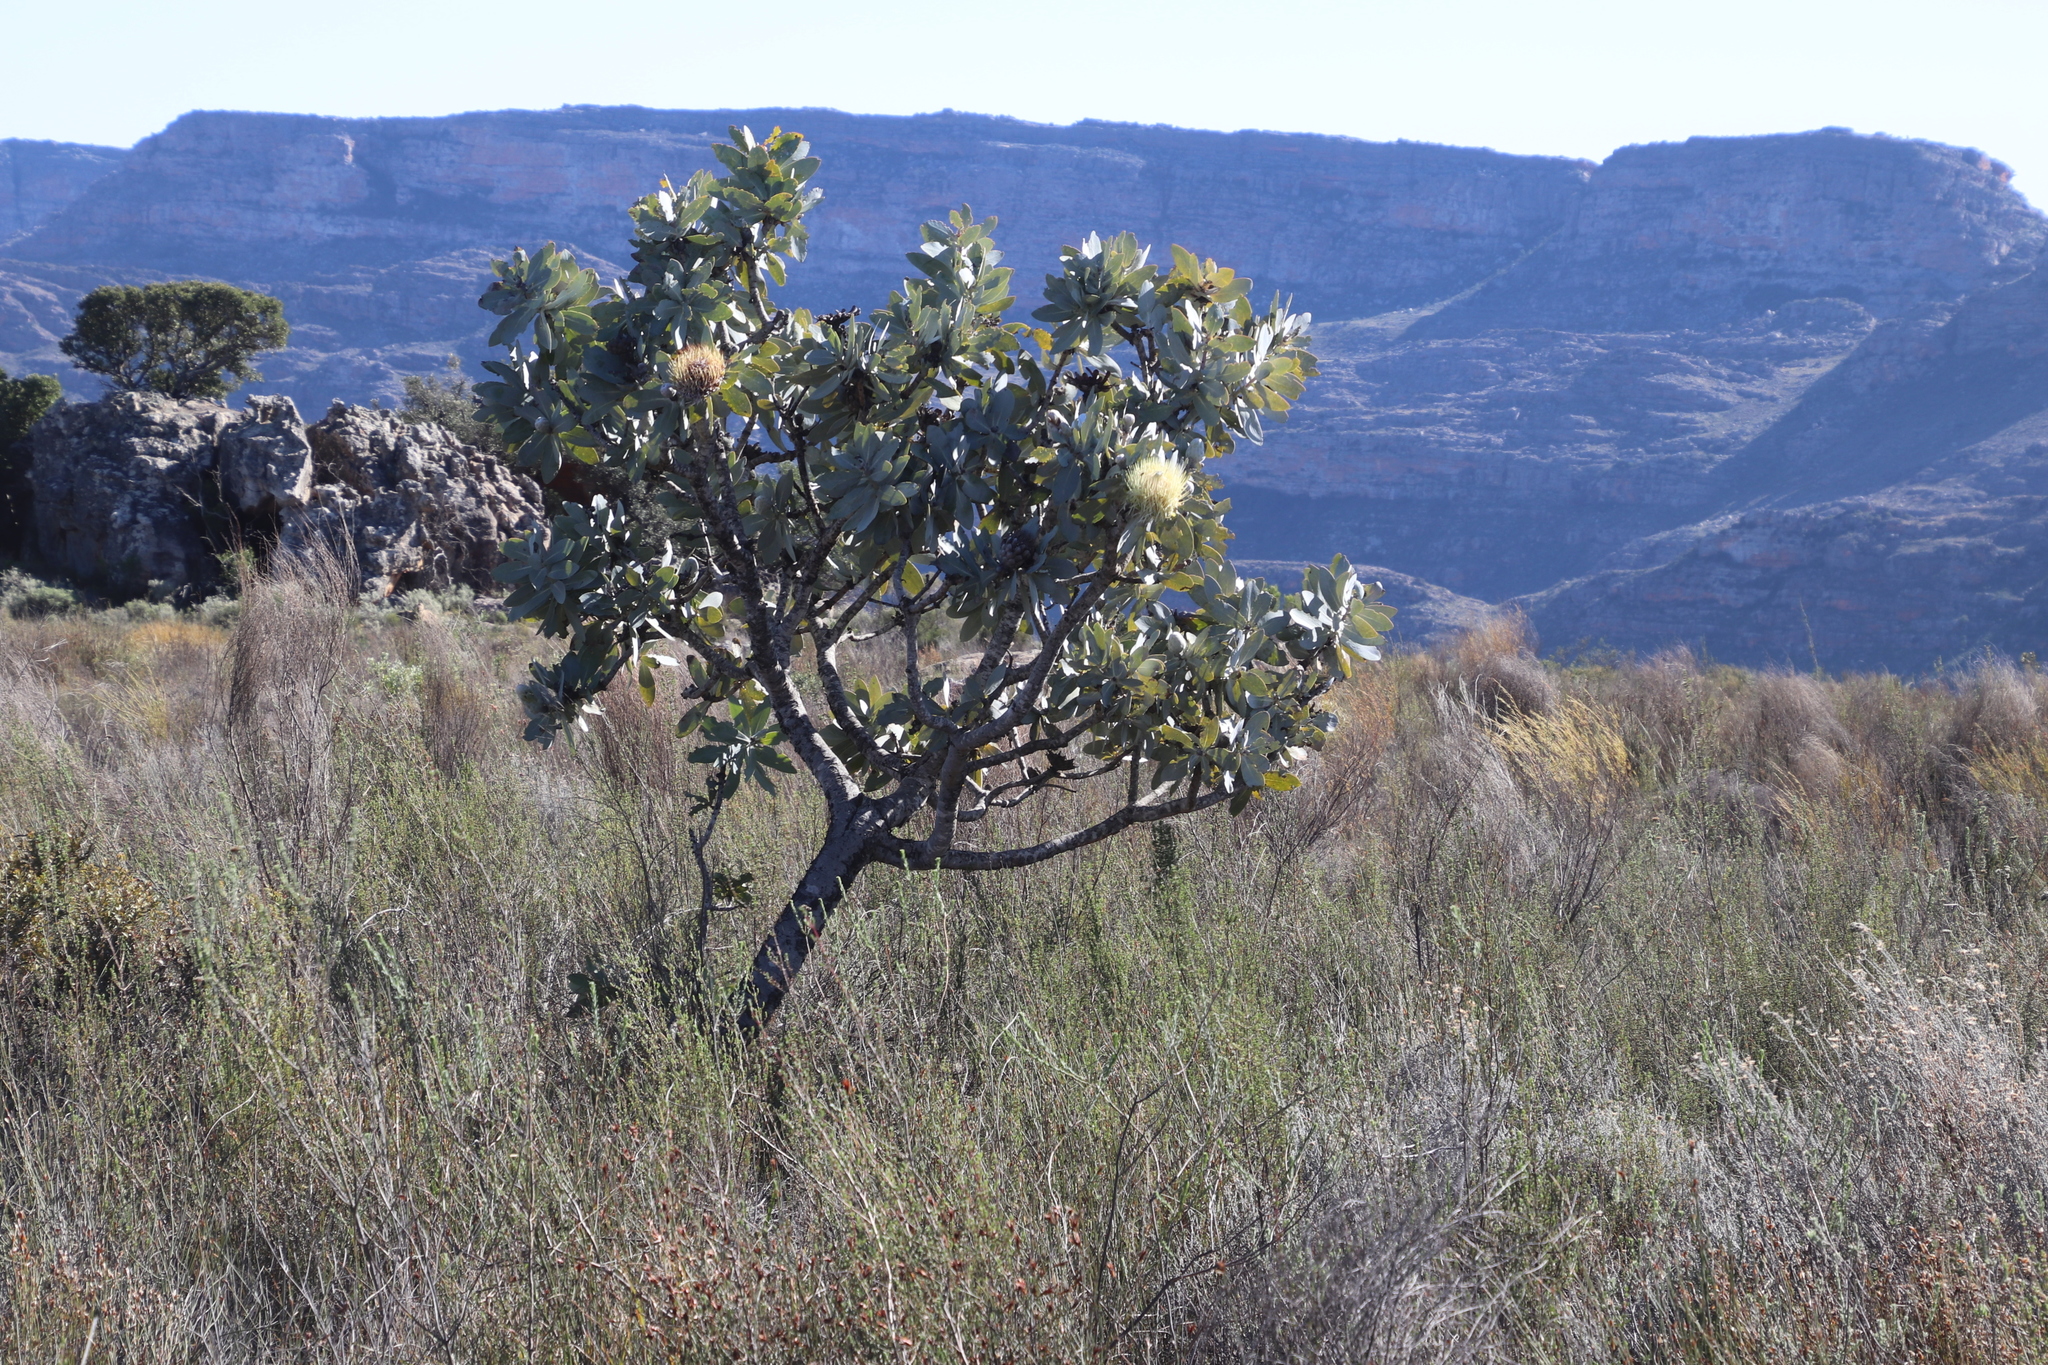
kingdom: Plantae
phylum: Tracheophyta
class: Magnoliopsida
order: Proteales
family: Proteaceae
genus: Protea
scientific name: Protea nitida
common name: Tree protea
